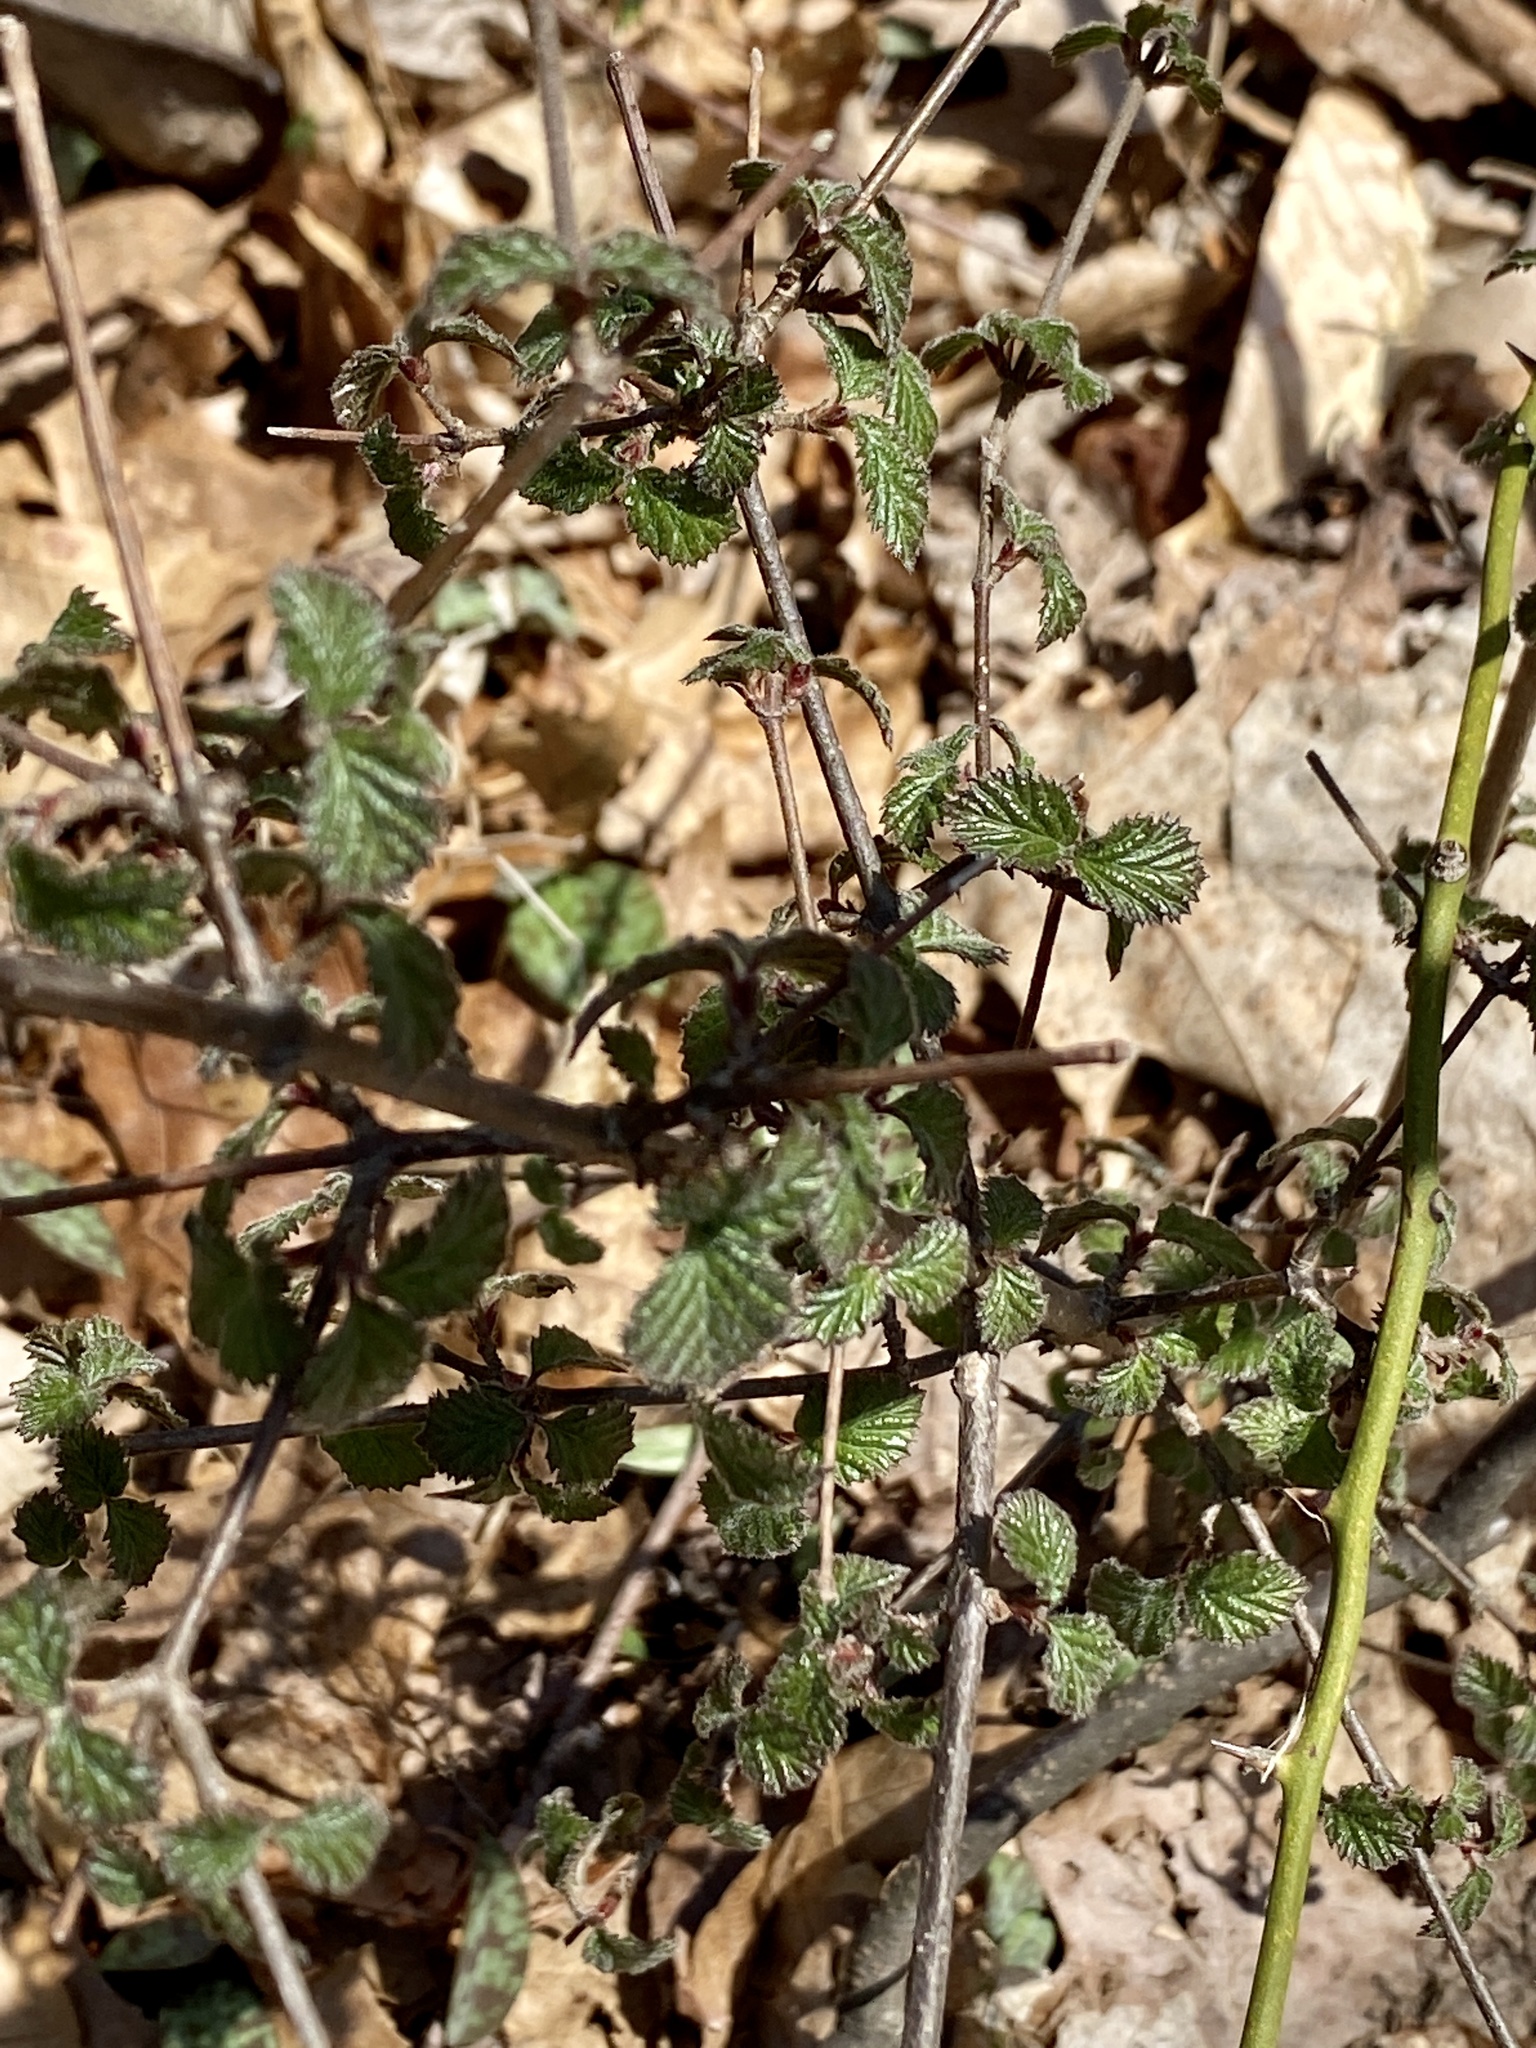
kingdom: Plantae
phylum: Tracheophyta
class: Magnoliopsida
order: Dipsacales
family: Viburnaceae
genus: Viburnum
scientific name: Viburnum dilatatum
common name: Linden arrowwood
